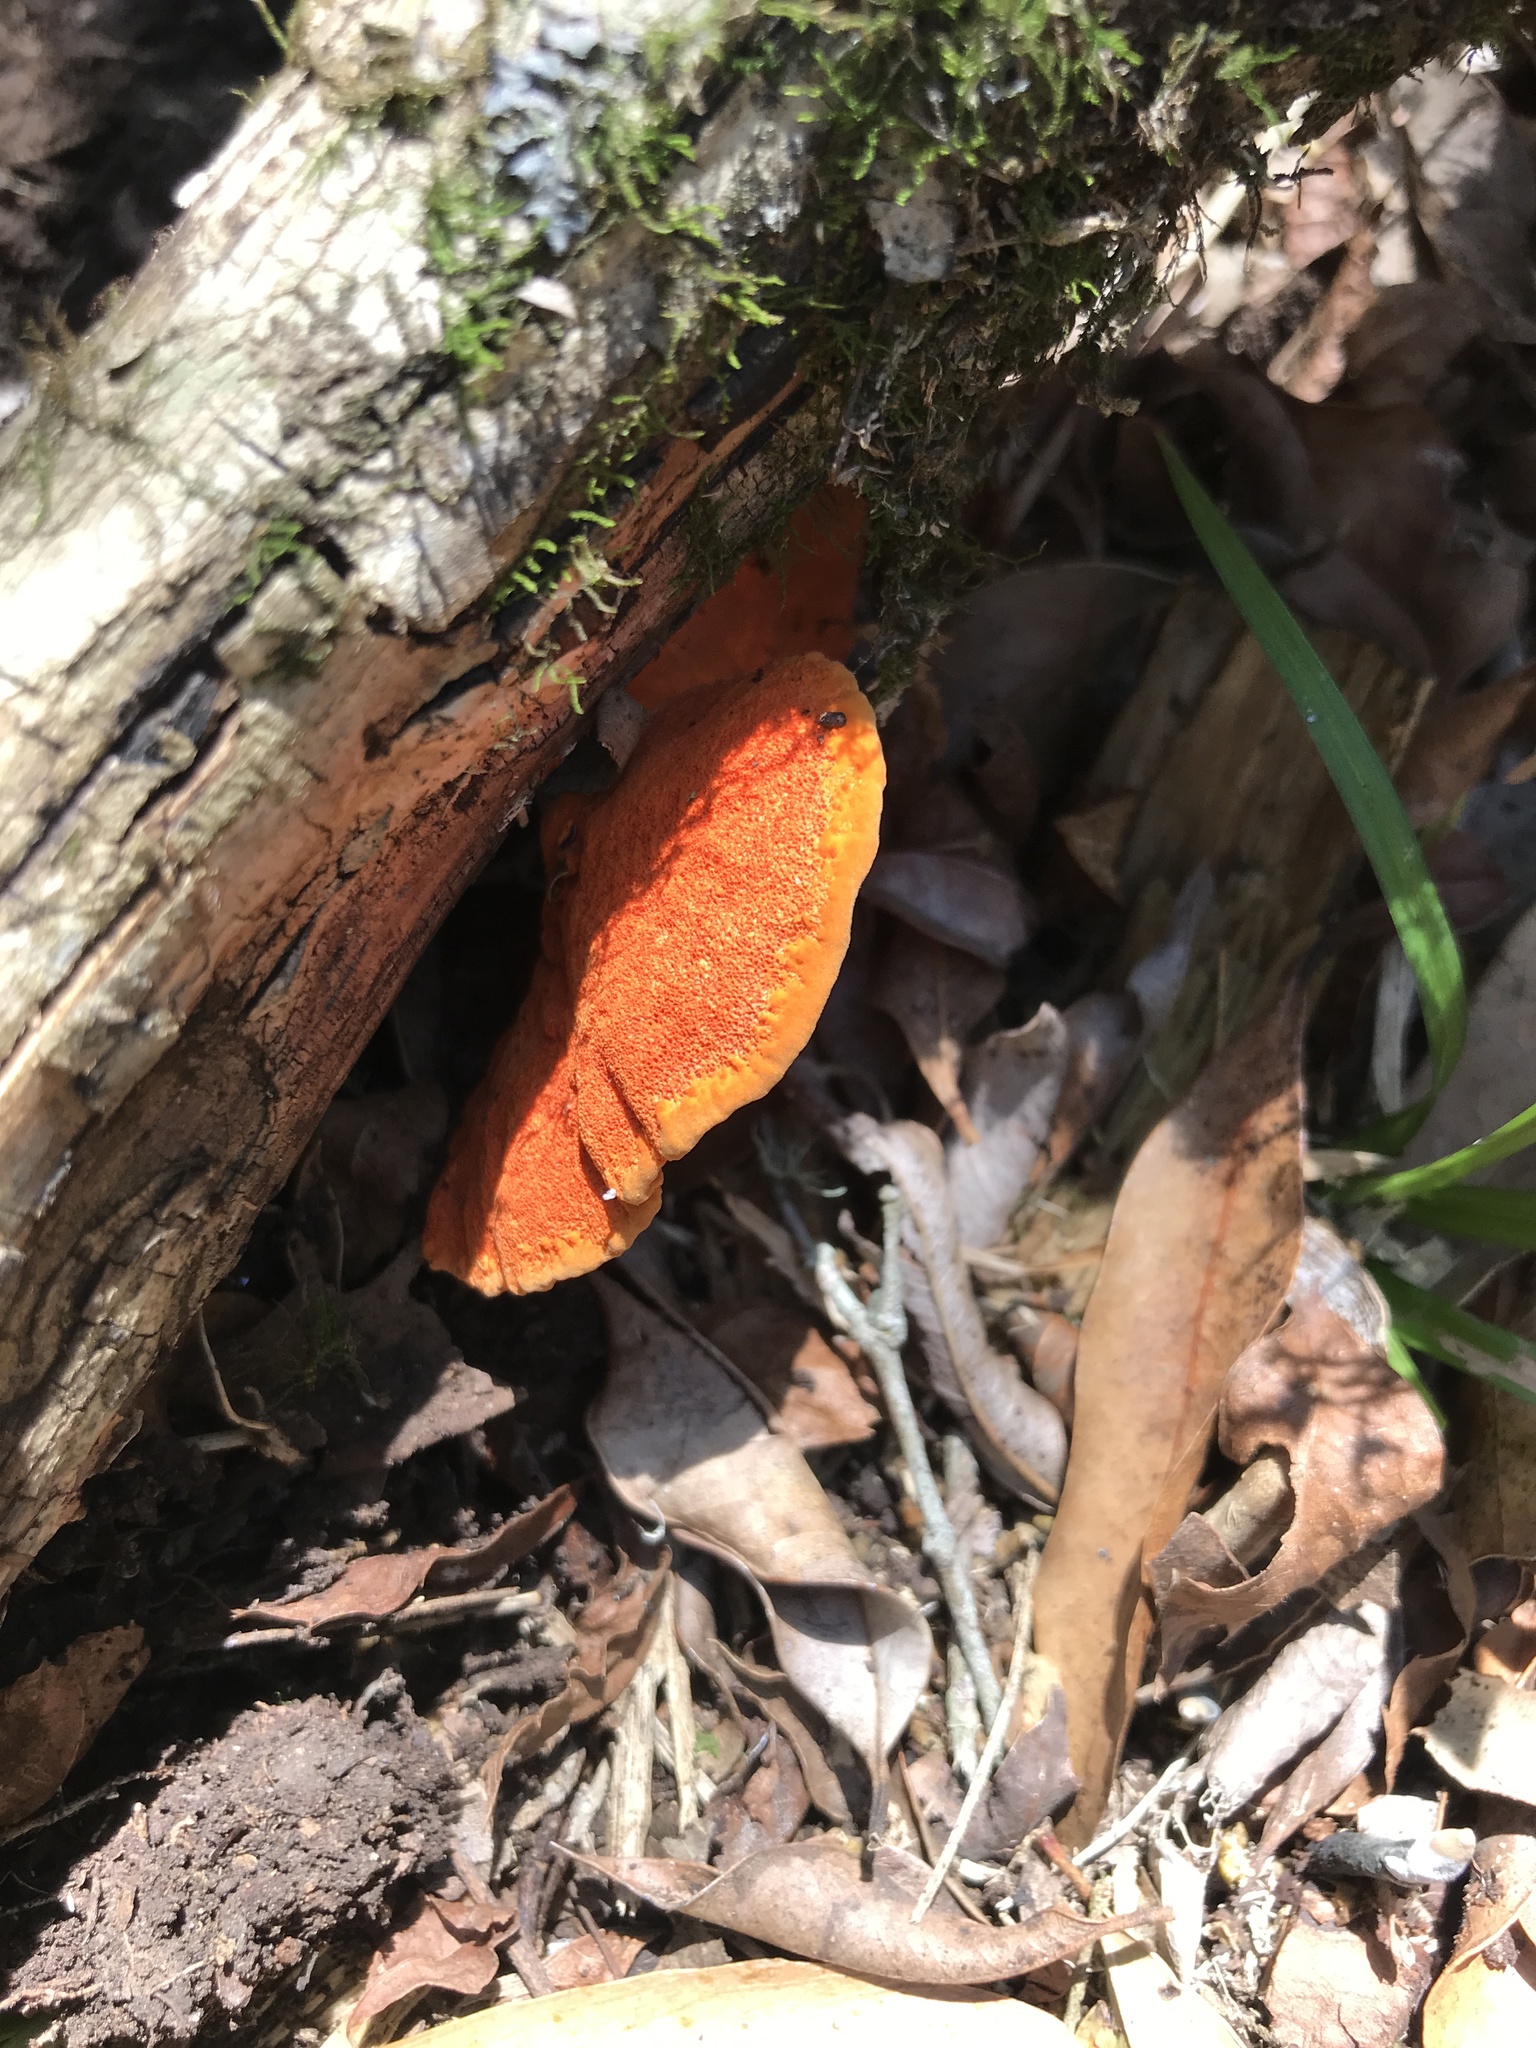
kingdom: Fungi
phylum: Basidiomycota
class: Agaricomycetes
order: Polyporales
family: Polyporaceae
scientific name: Polyporaceae
